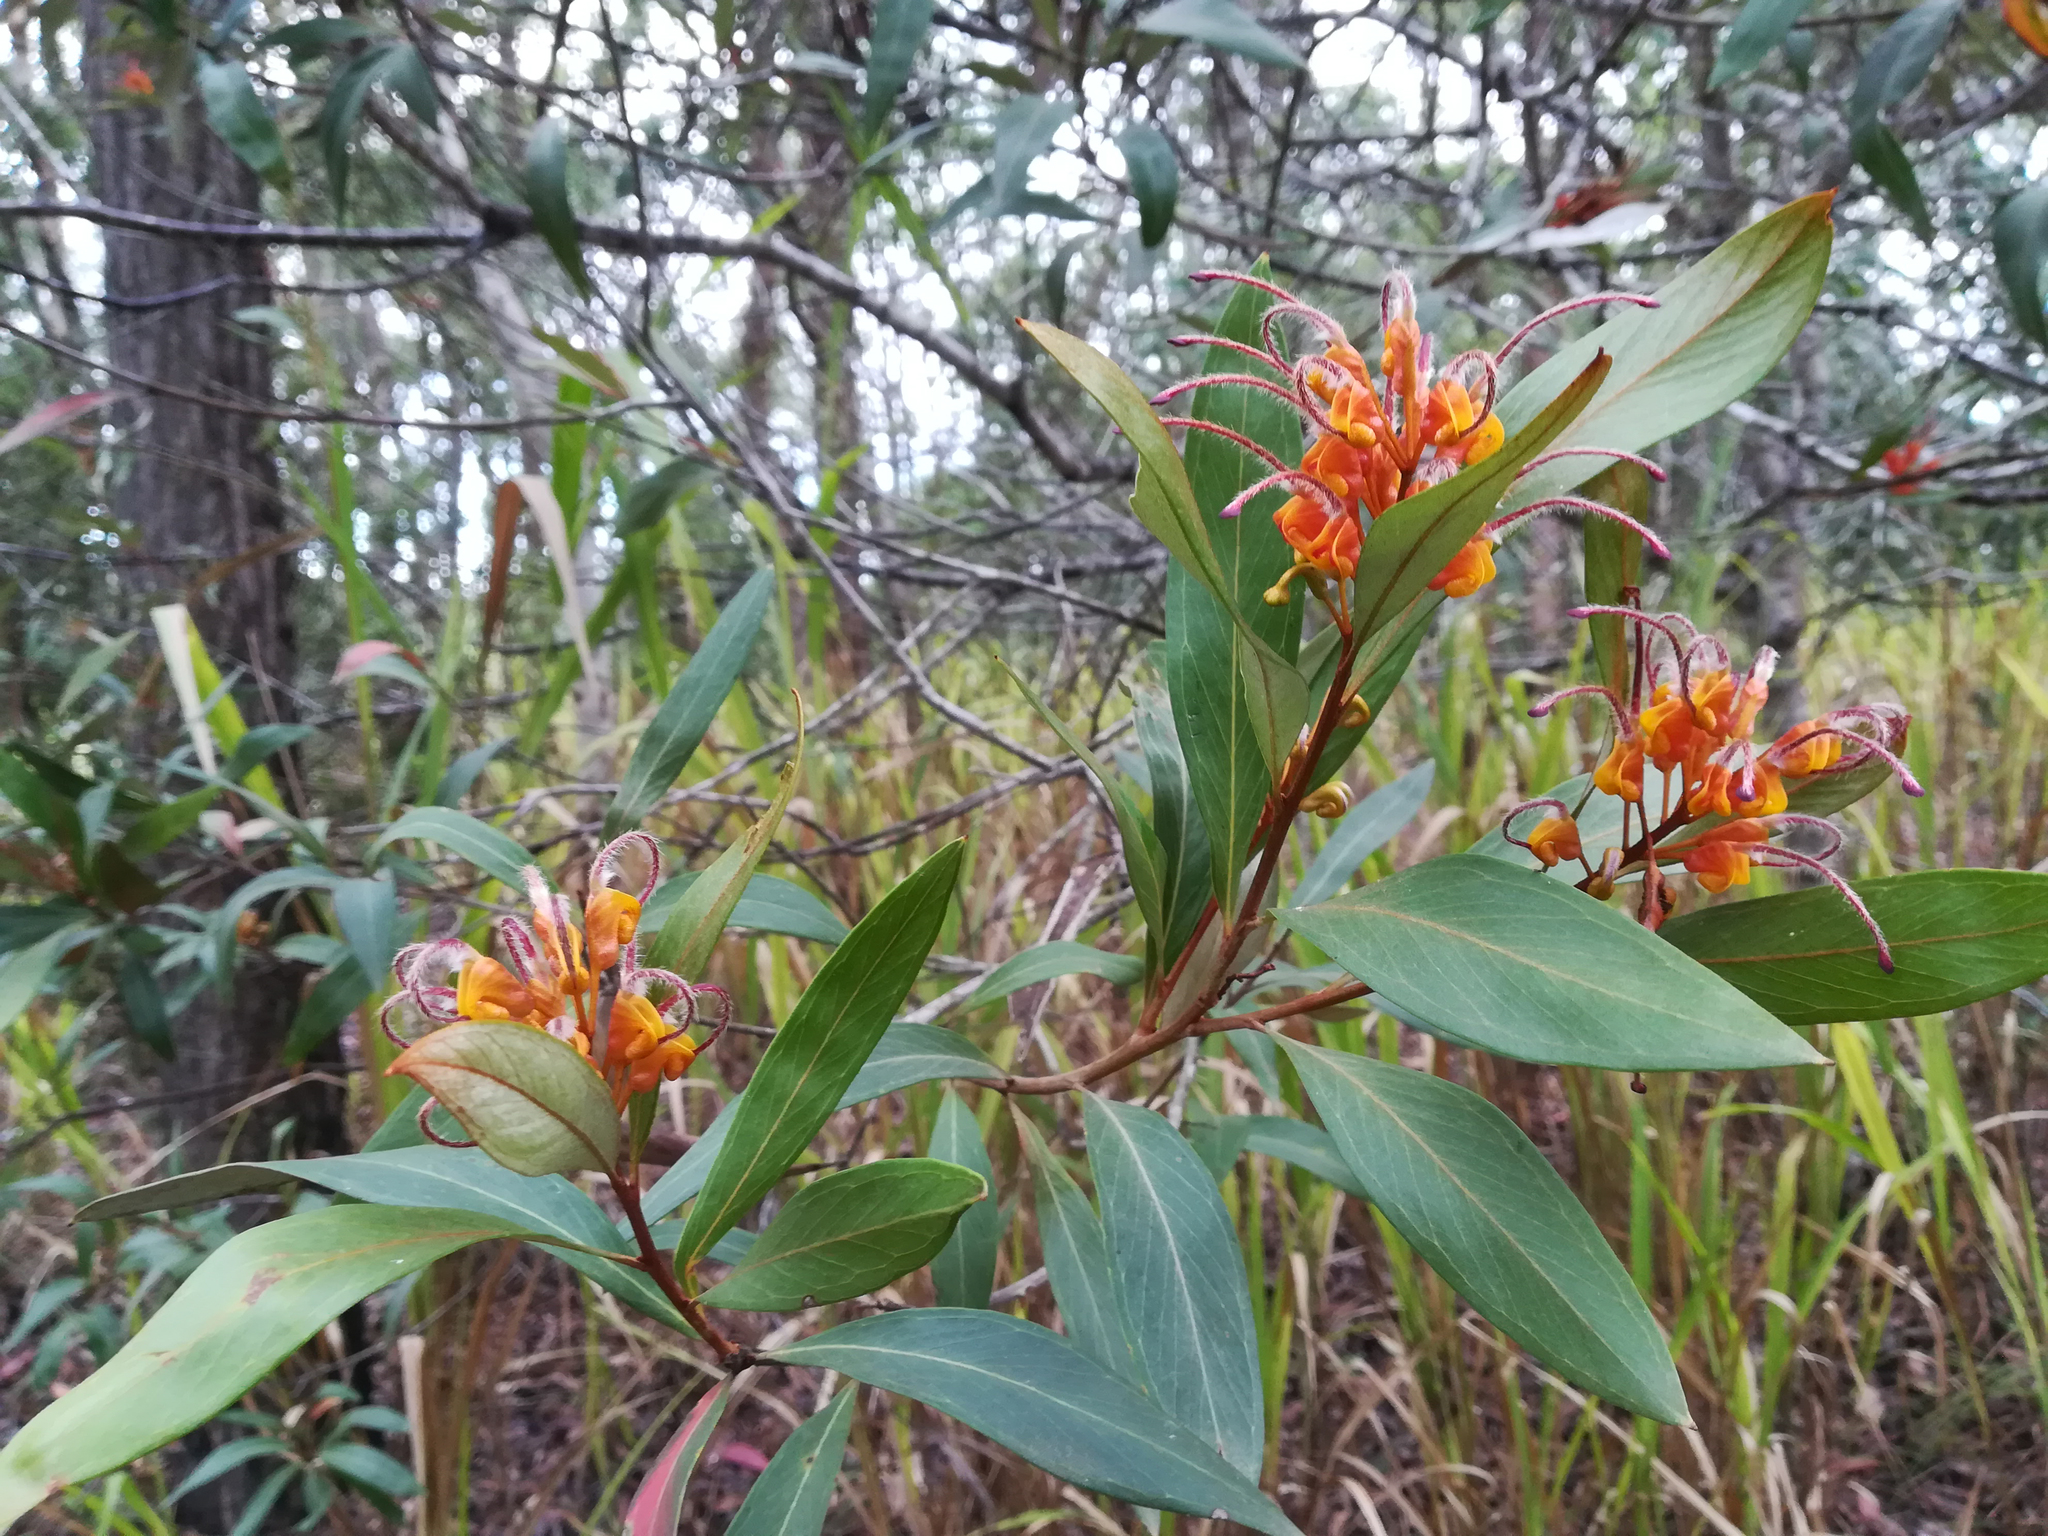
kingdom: Plantae
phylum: Tracheophyta
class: Magnoliopsida
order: Proteales
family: Proteaceae
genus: Grevillea
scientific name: Grevillea glossadenia
